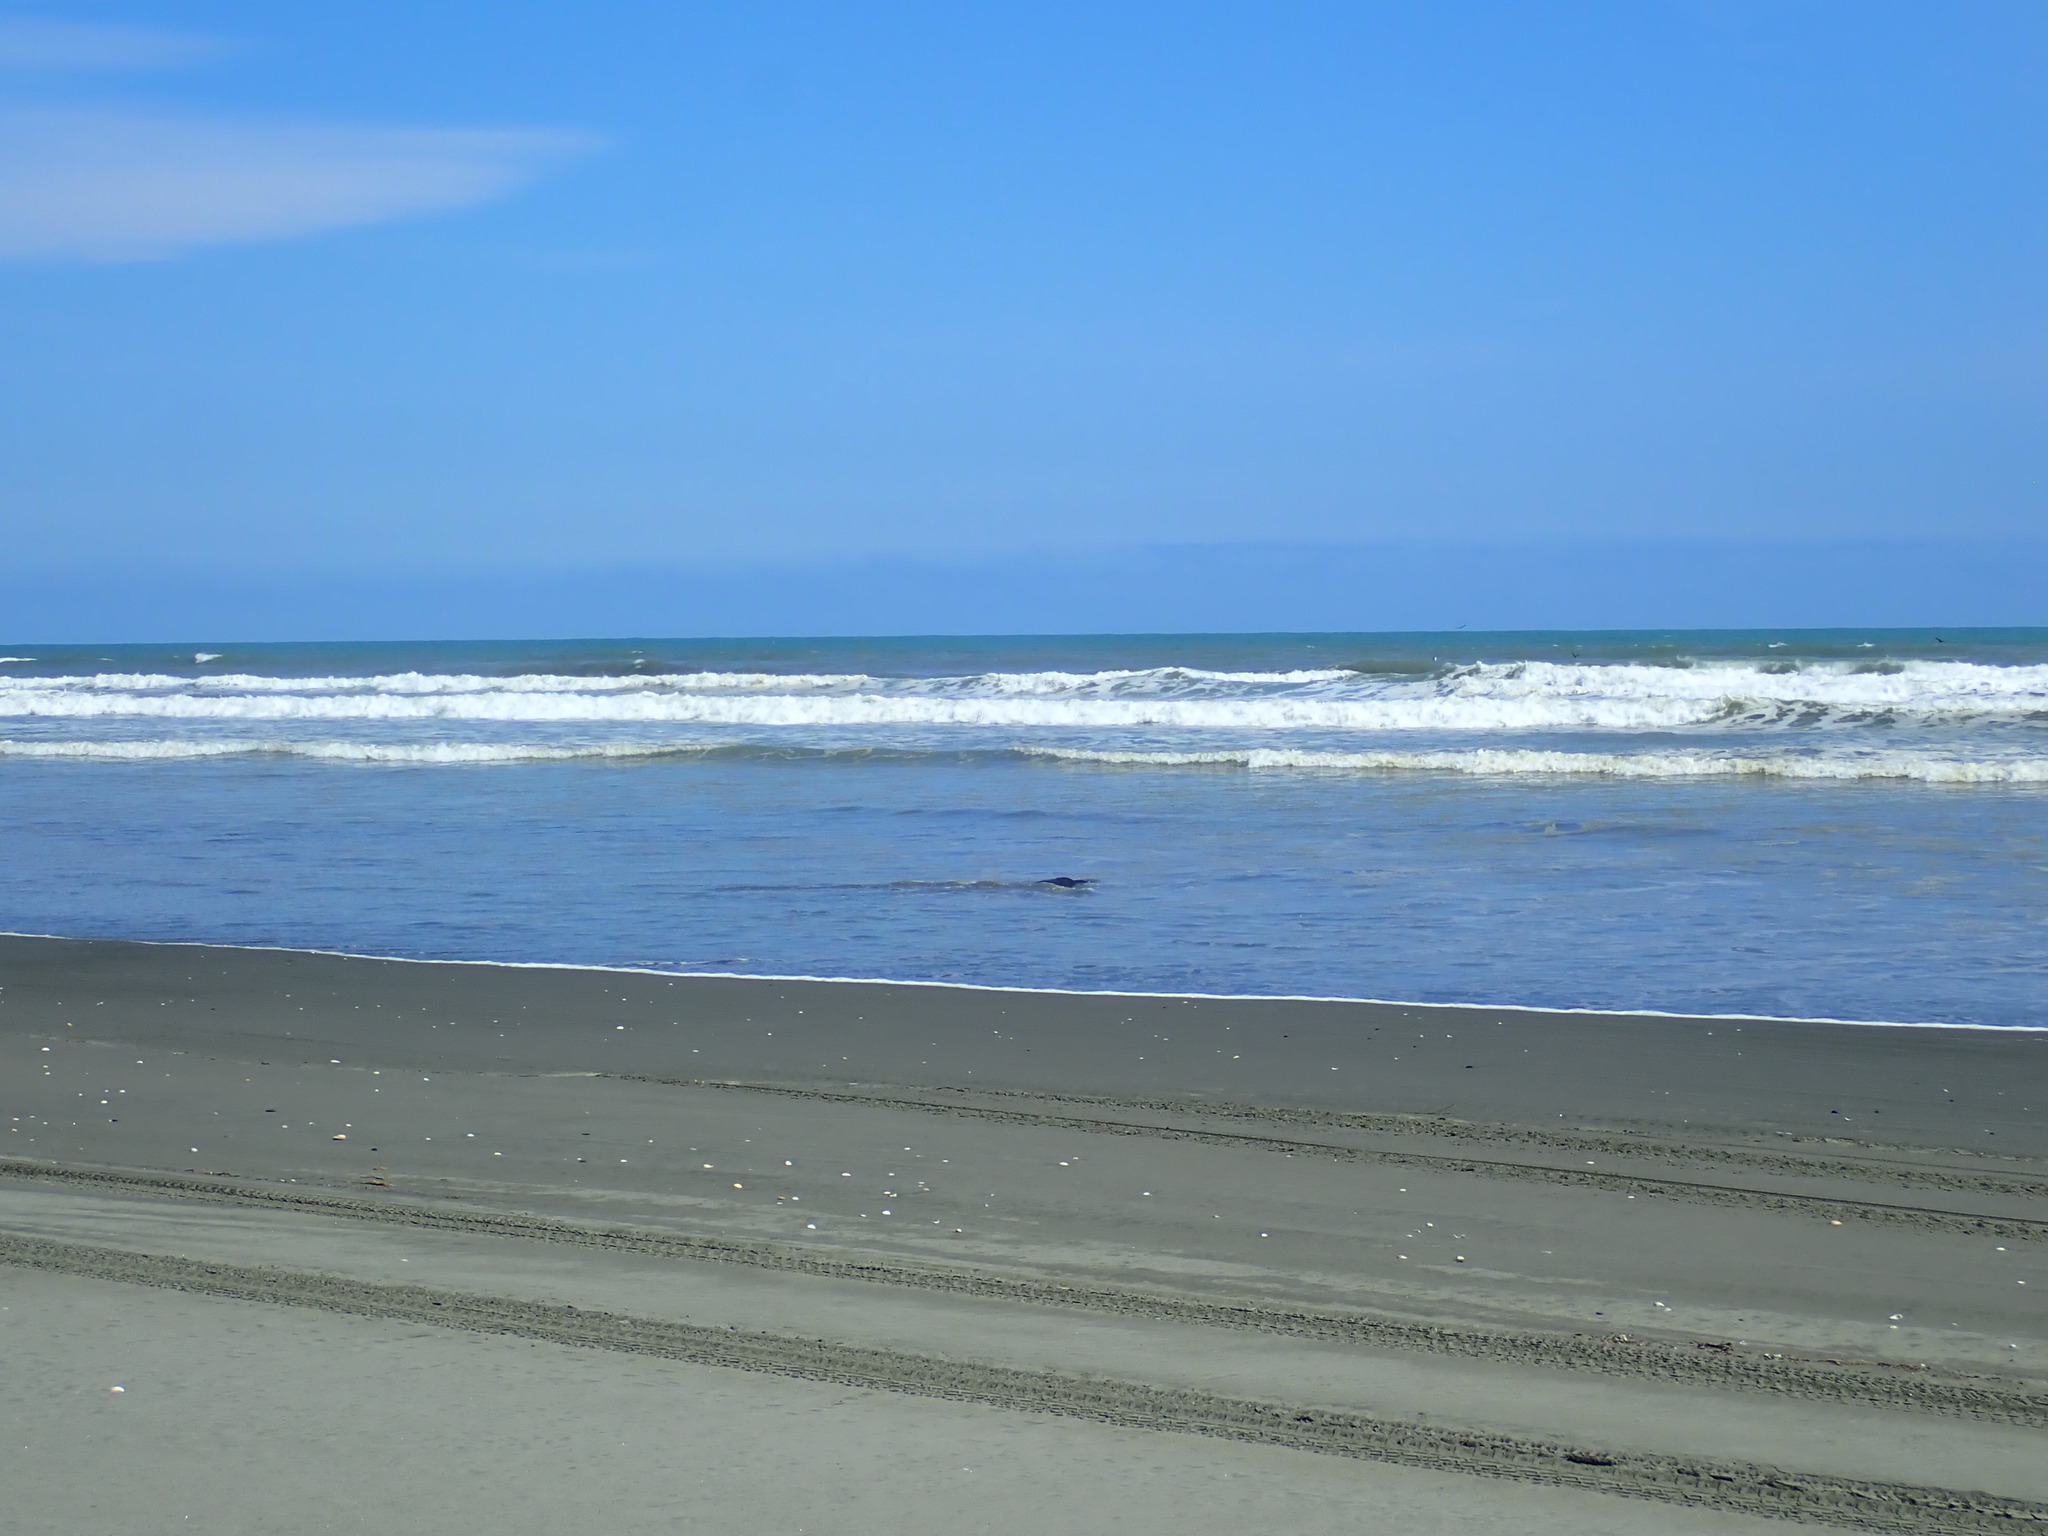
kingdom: Animalia
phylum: Chordata
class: Mammalia
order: Carnivora
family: Otariidae
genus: Arctocephalus
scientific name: Arctocephalus forsteri
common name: New zealand fur seal
